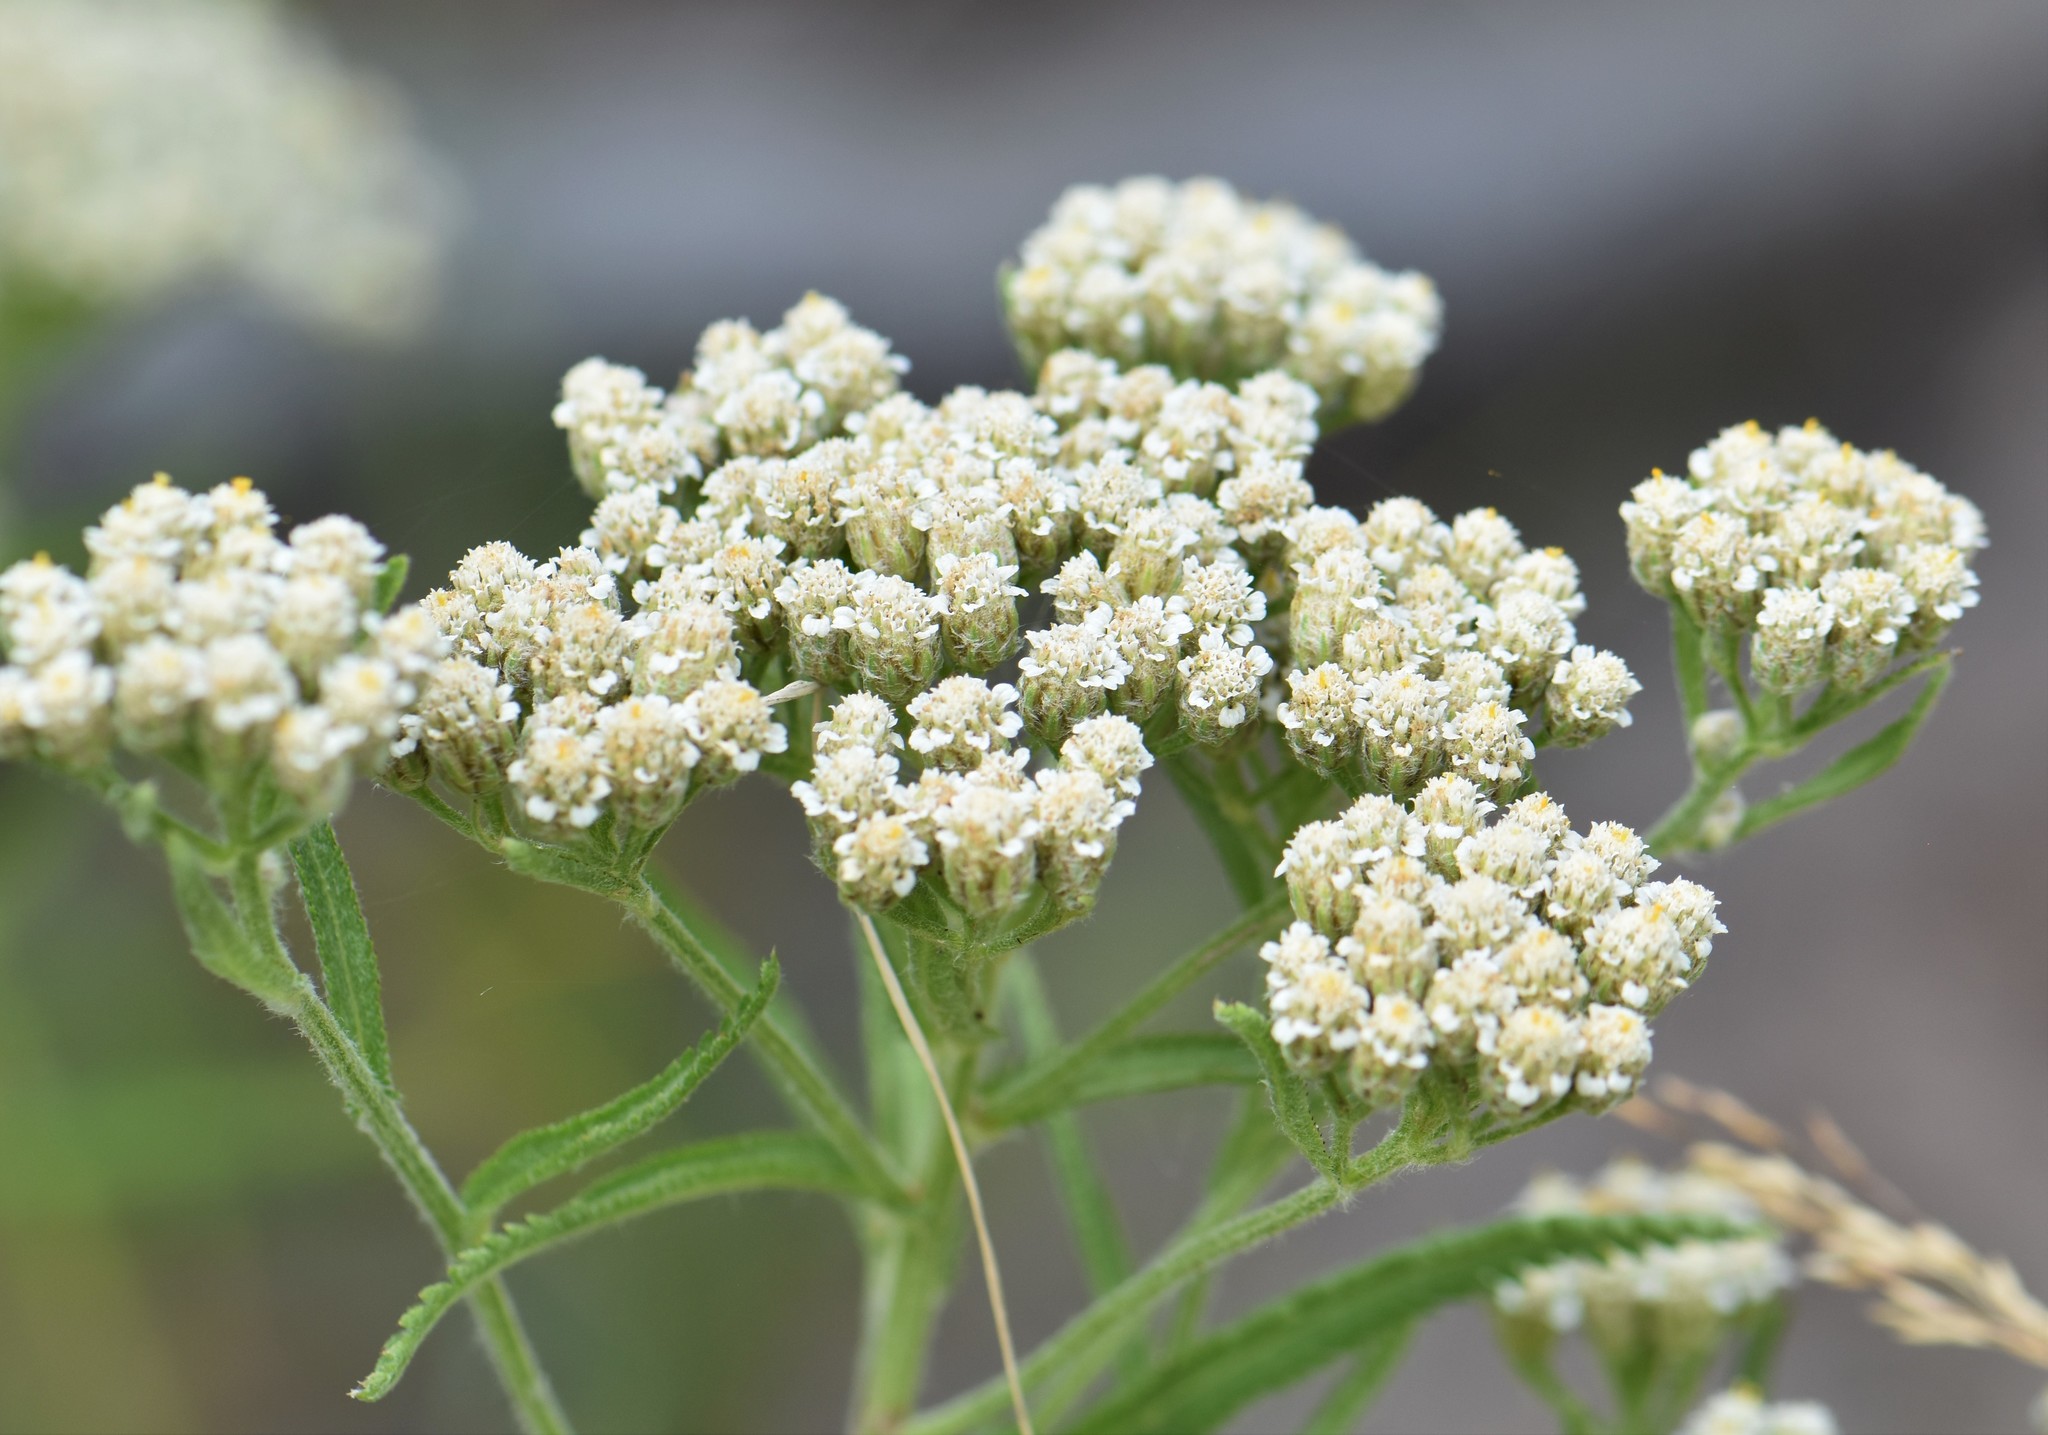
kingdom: Plantae
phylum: Tracheophyta
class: Magnoliopsida
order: Asterales
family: Asteraceae
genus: Achillea
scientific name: Achillea alpina
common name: Siberian yarrow
